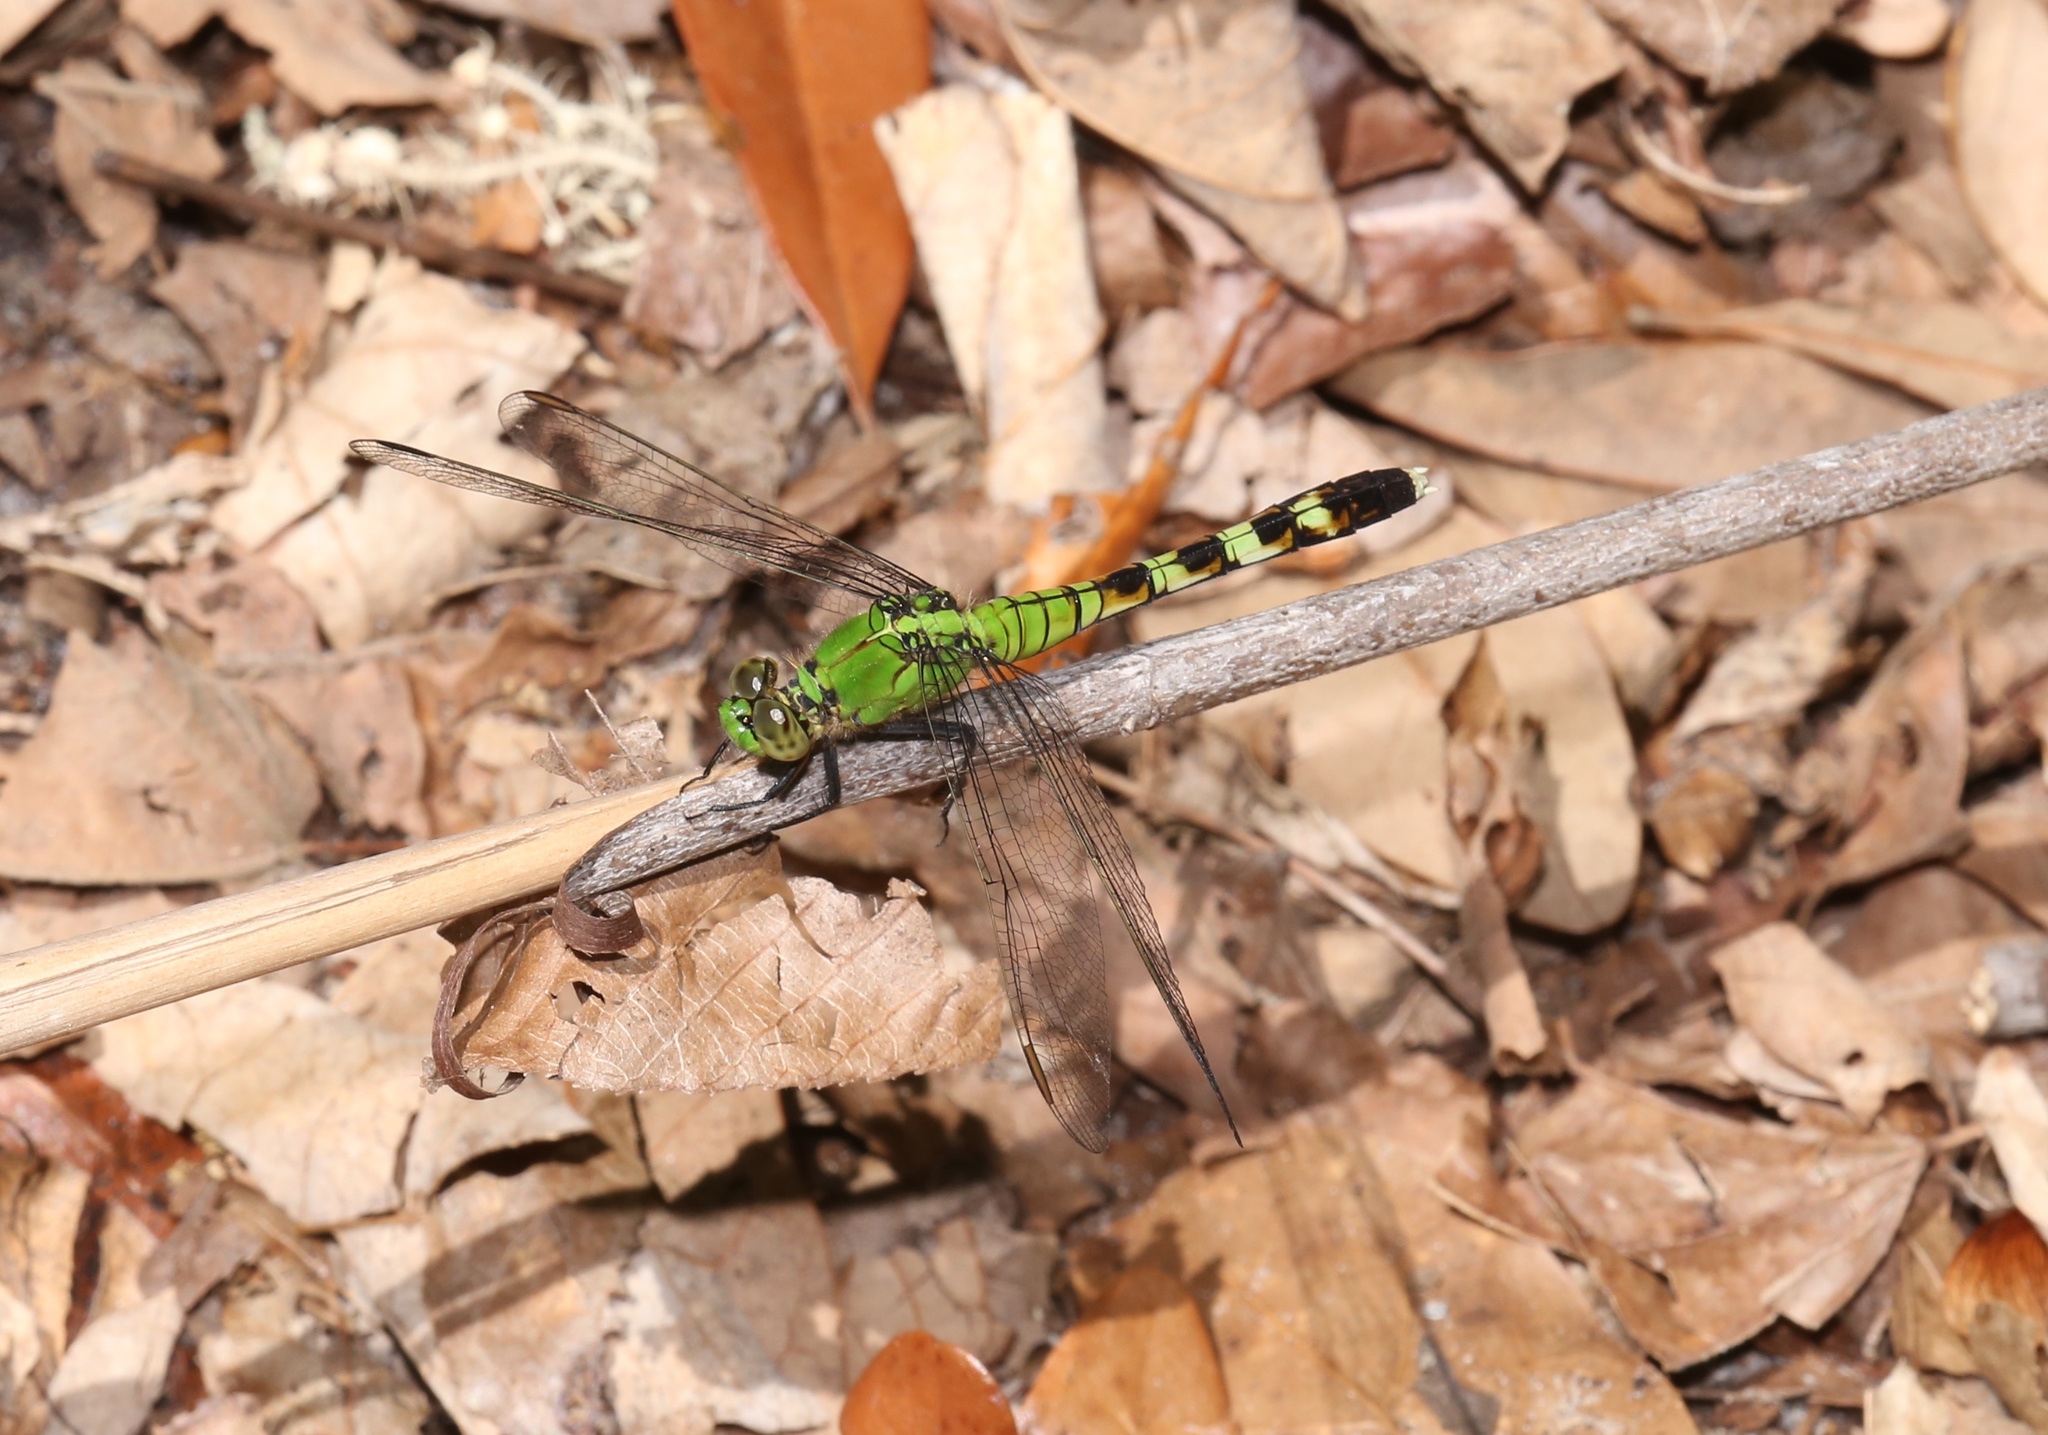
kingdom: Animalia
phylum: Arthropoda
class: Insecta
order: Odonata
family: Libellulidae
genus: Erythemis
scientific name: Erythemis simplicicollis
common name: Eastern pondhawk
